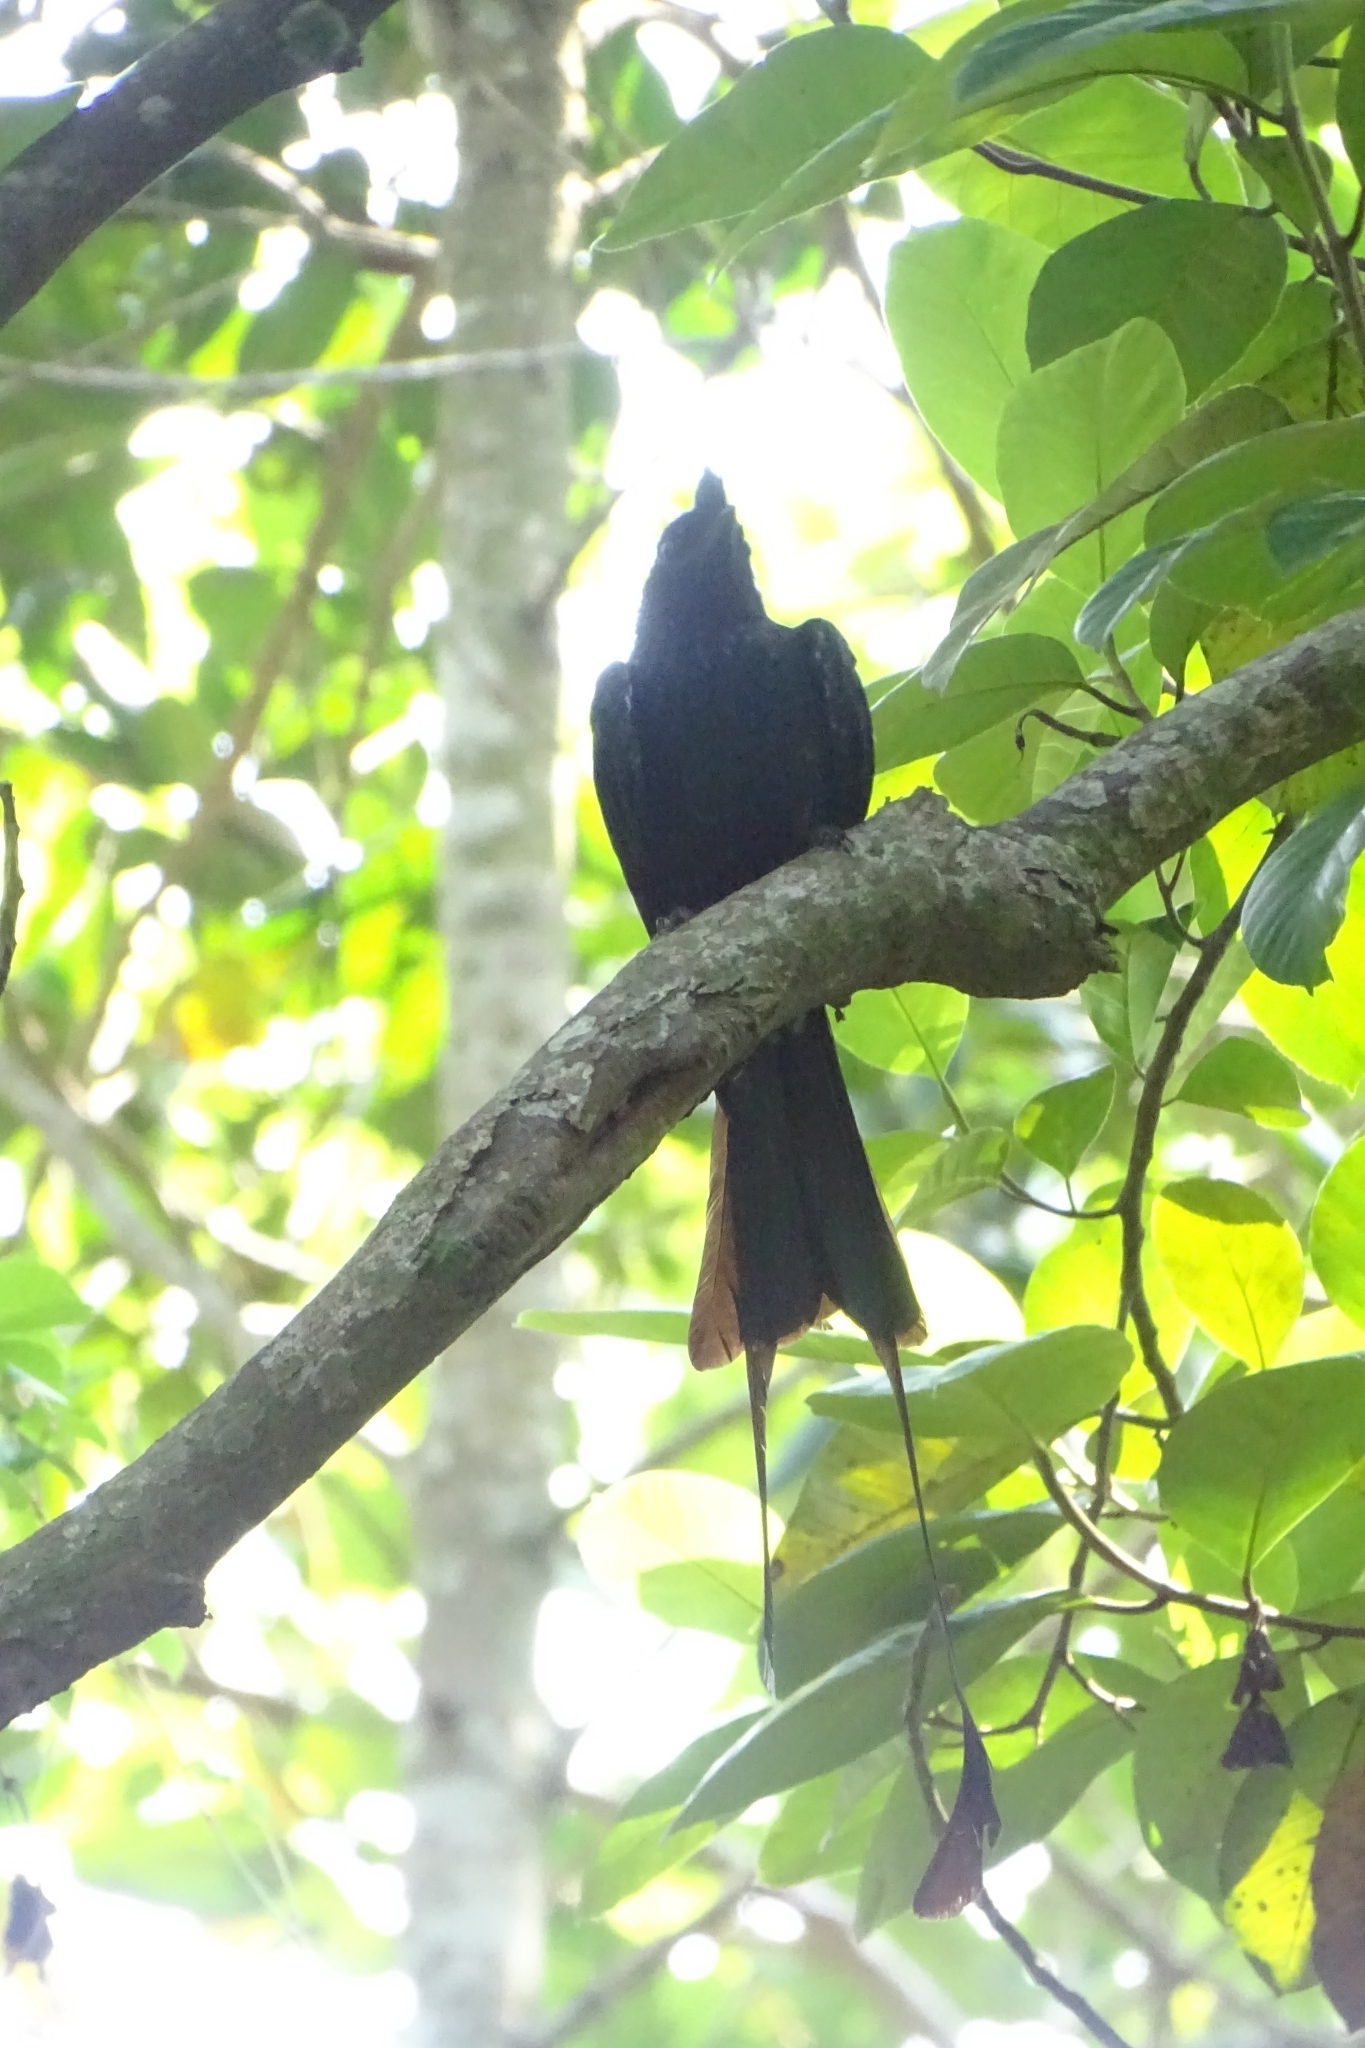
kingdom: Animalia
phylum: Chordata
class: Aves
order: Passeriformes
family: Dicruridae
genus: Dicrurus
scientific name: Dicrurus paradiseus
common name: Greater racket-tailed drongo
